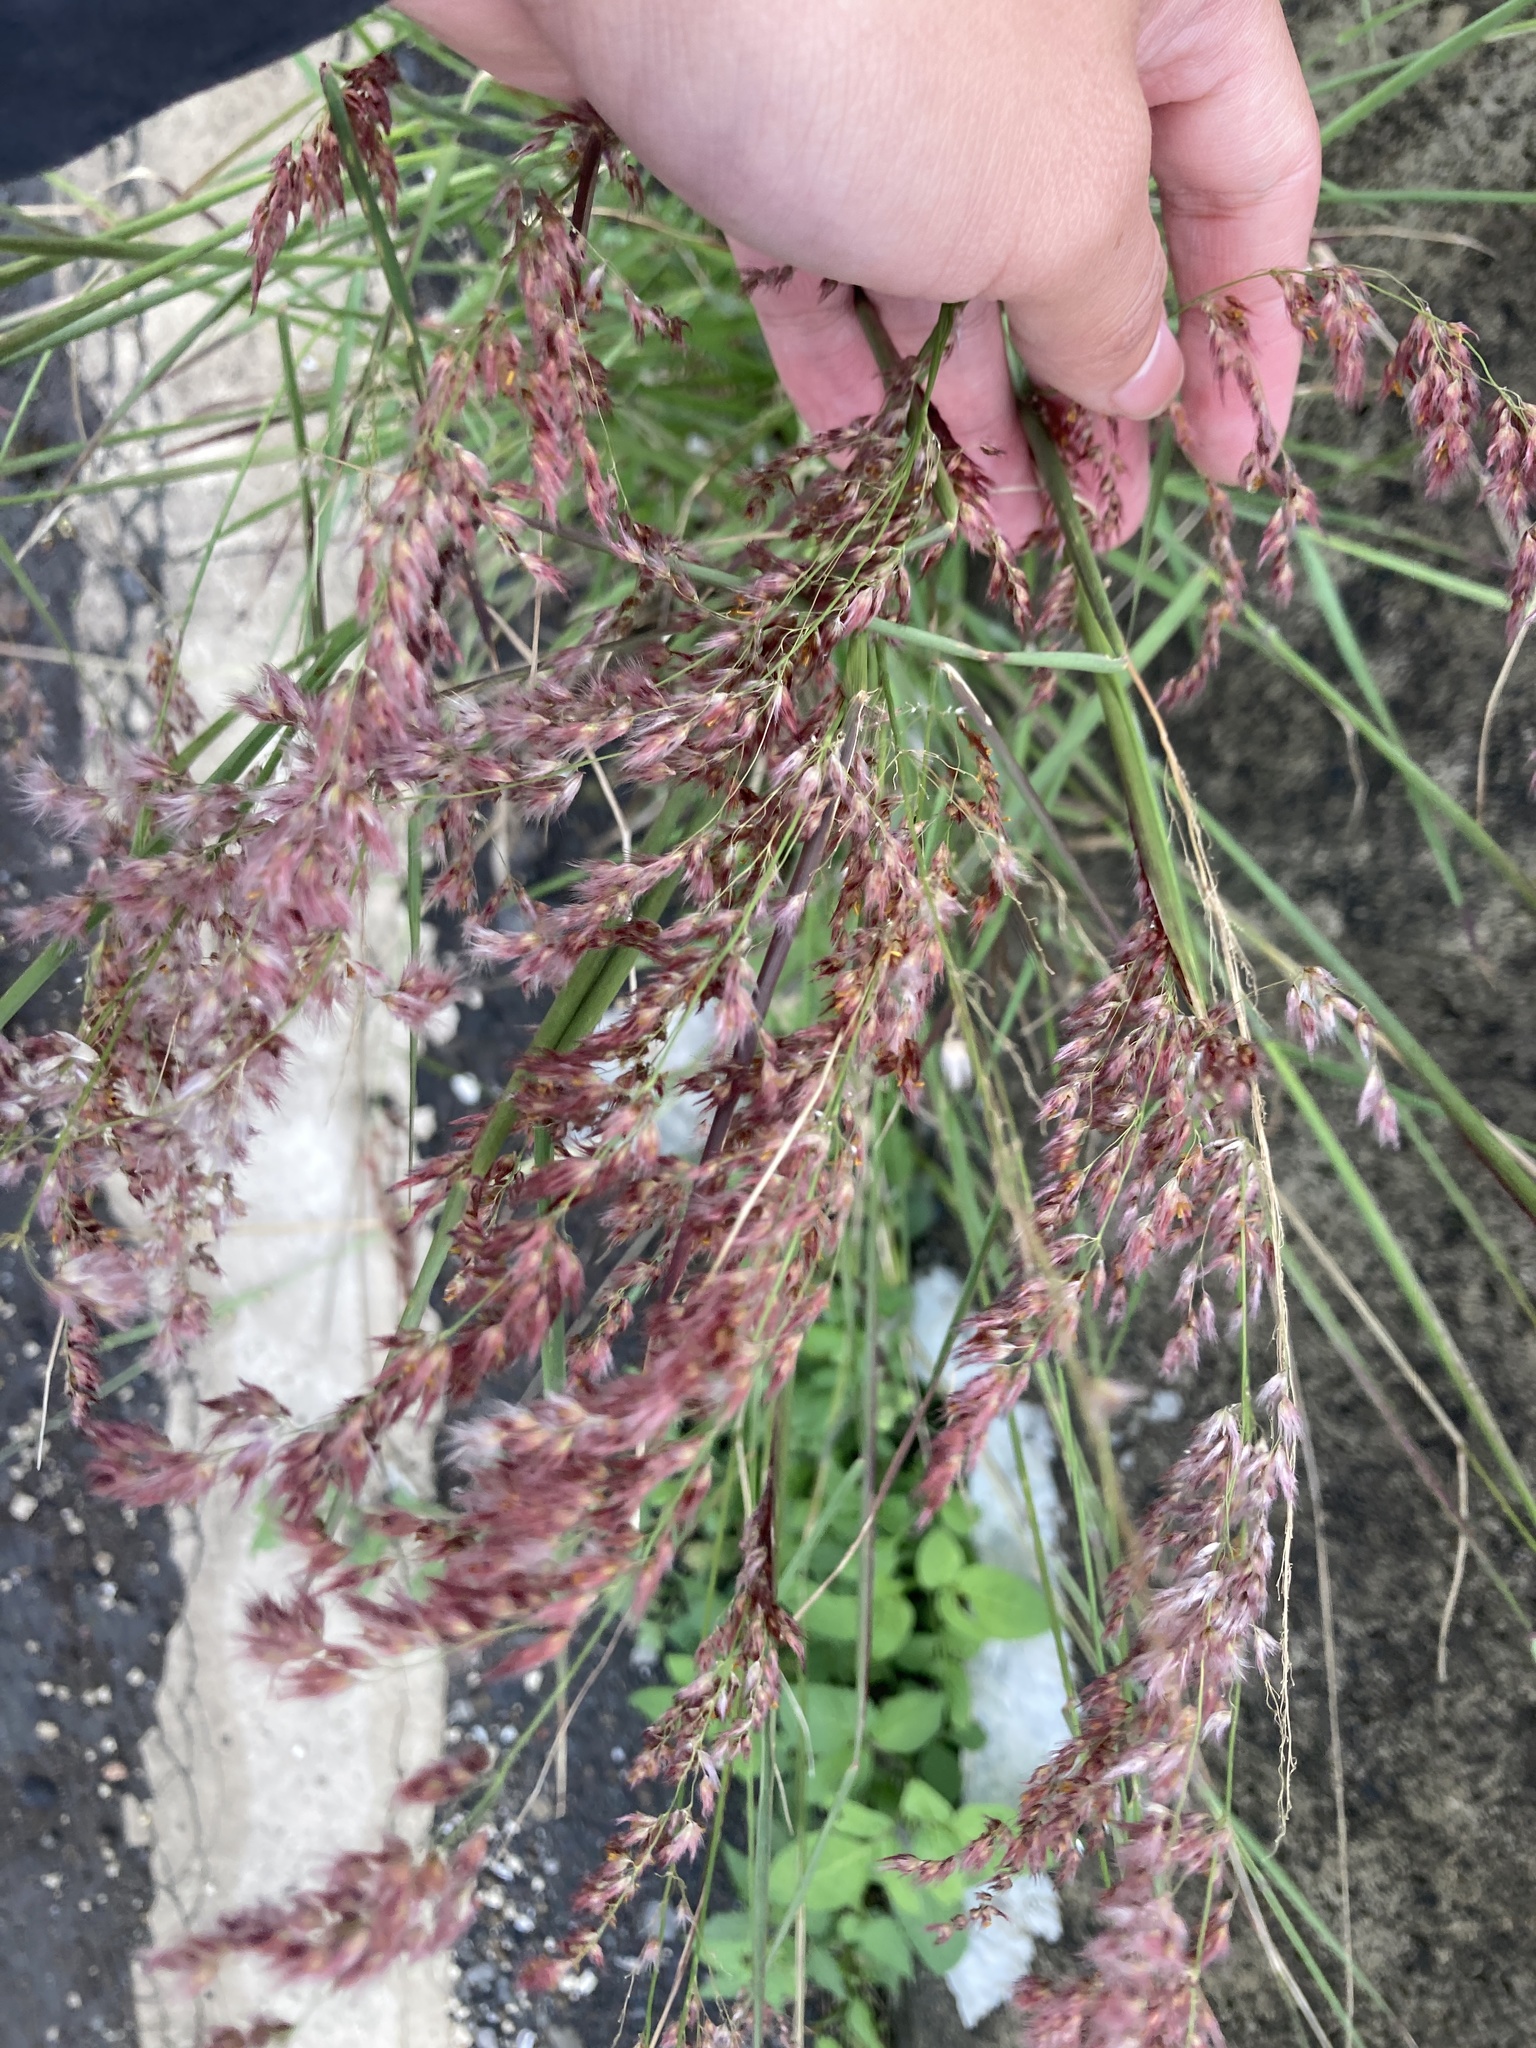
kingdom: Plantae
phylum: Tracheophyta
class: Liliopsida
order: Poales
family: Poaceae
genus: Melinis
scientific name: Melinis repens
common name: Rose natal grass
